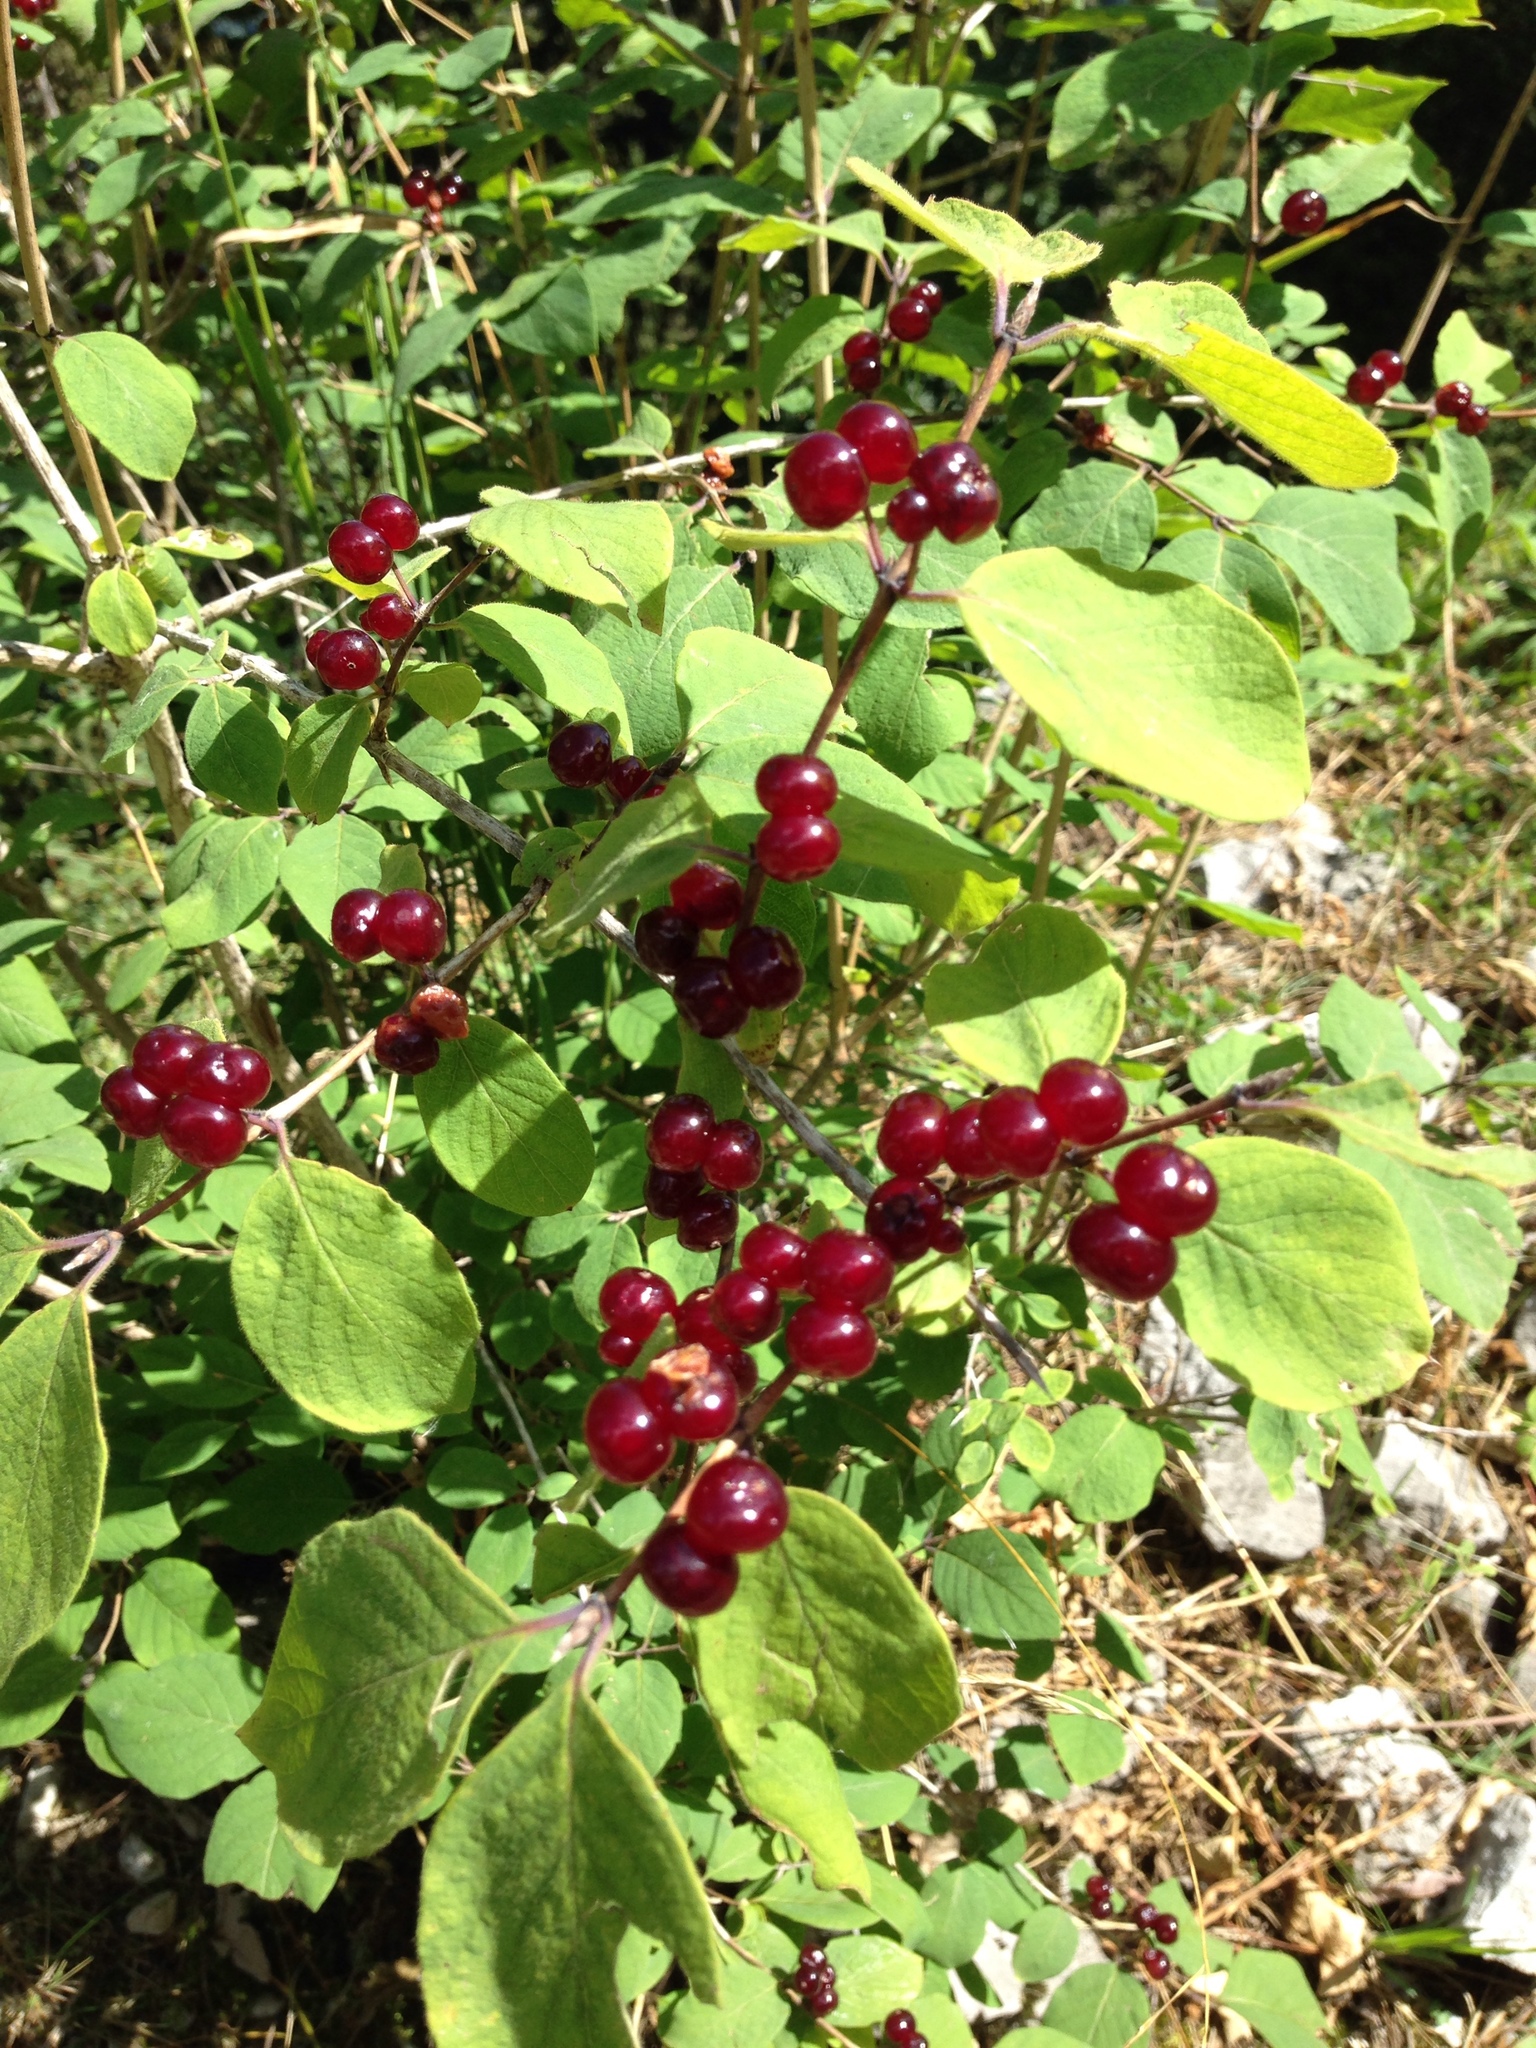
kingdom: Plantae
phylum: Tracheophyta
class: Magnoliopsida
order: Dipsacales
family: Caprifoliaceae
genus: Lonicera
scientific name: Lonicera xylosteum
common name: Fly honeysuckle
